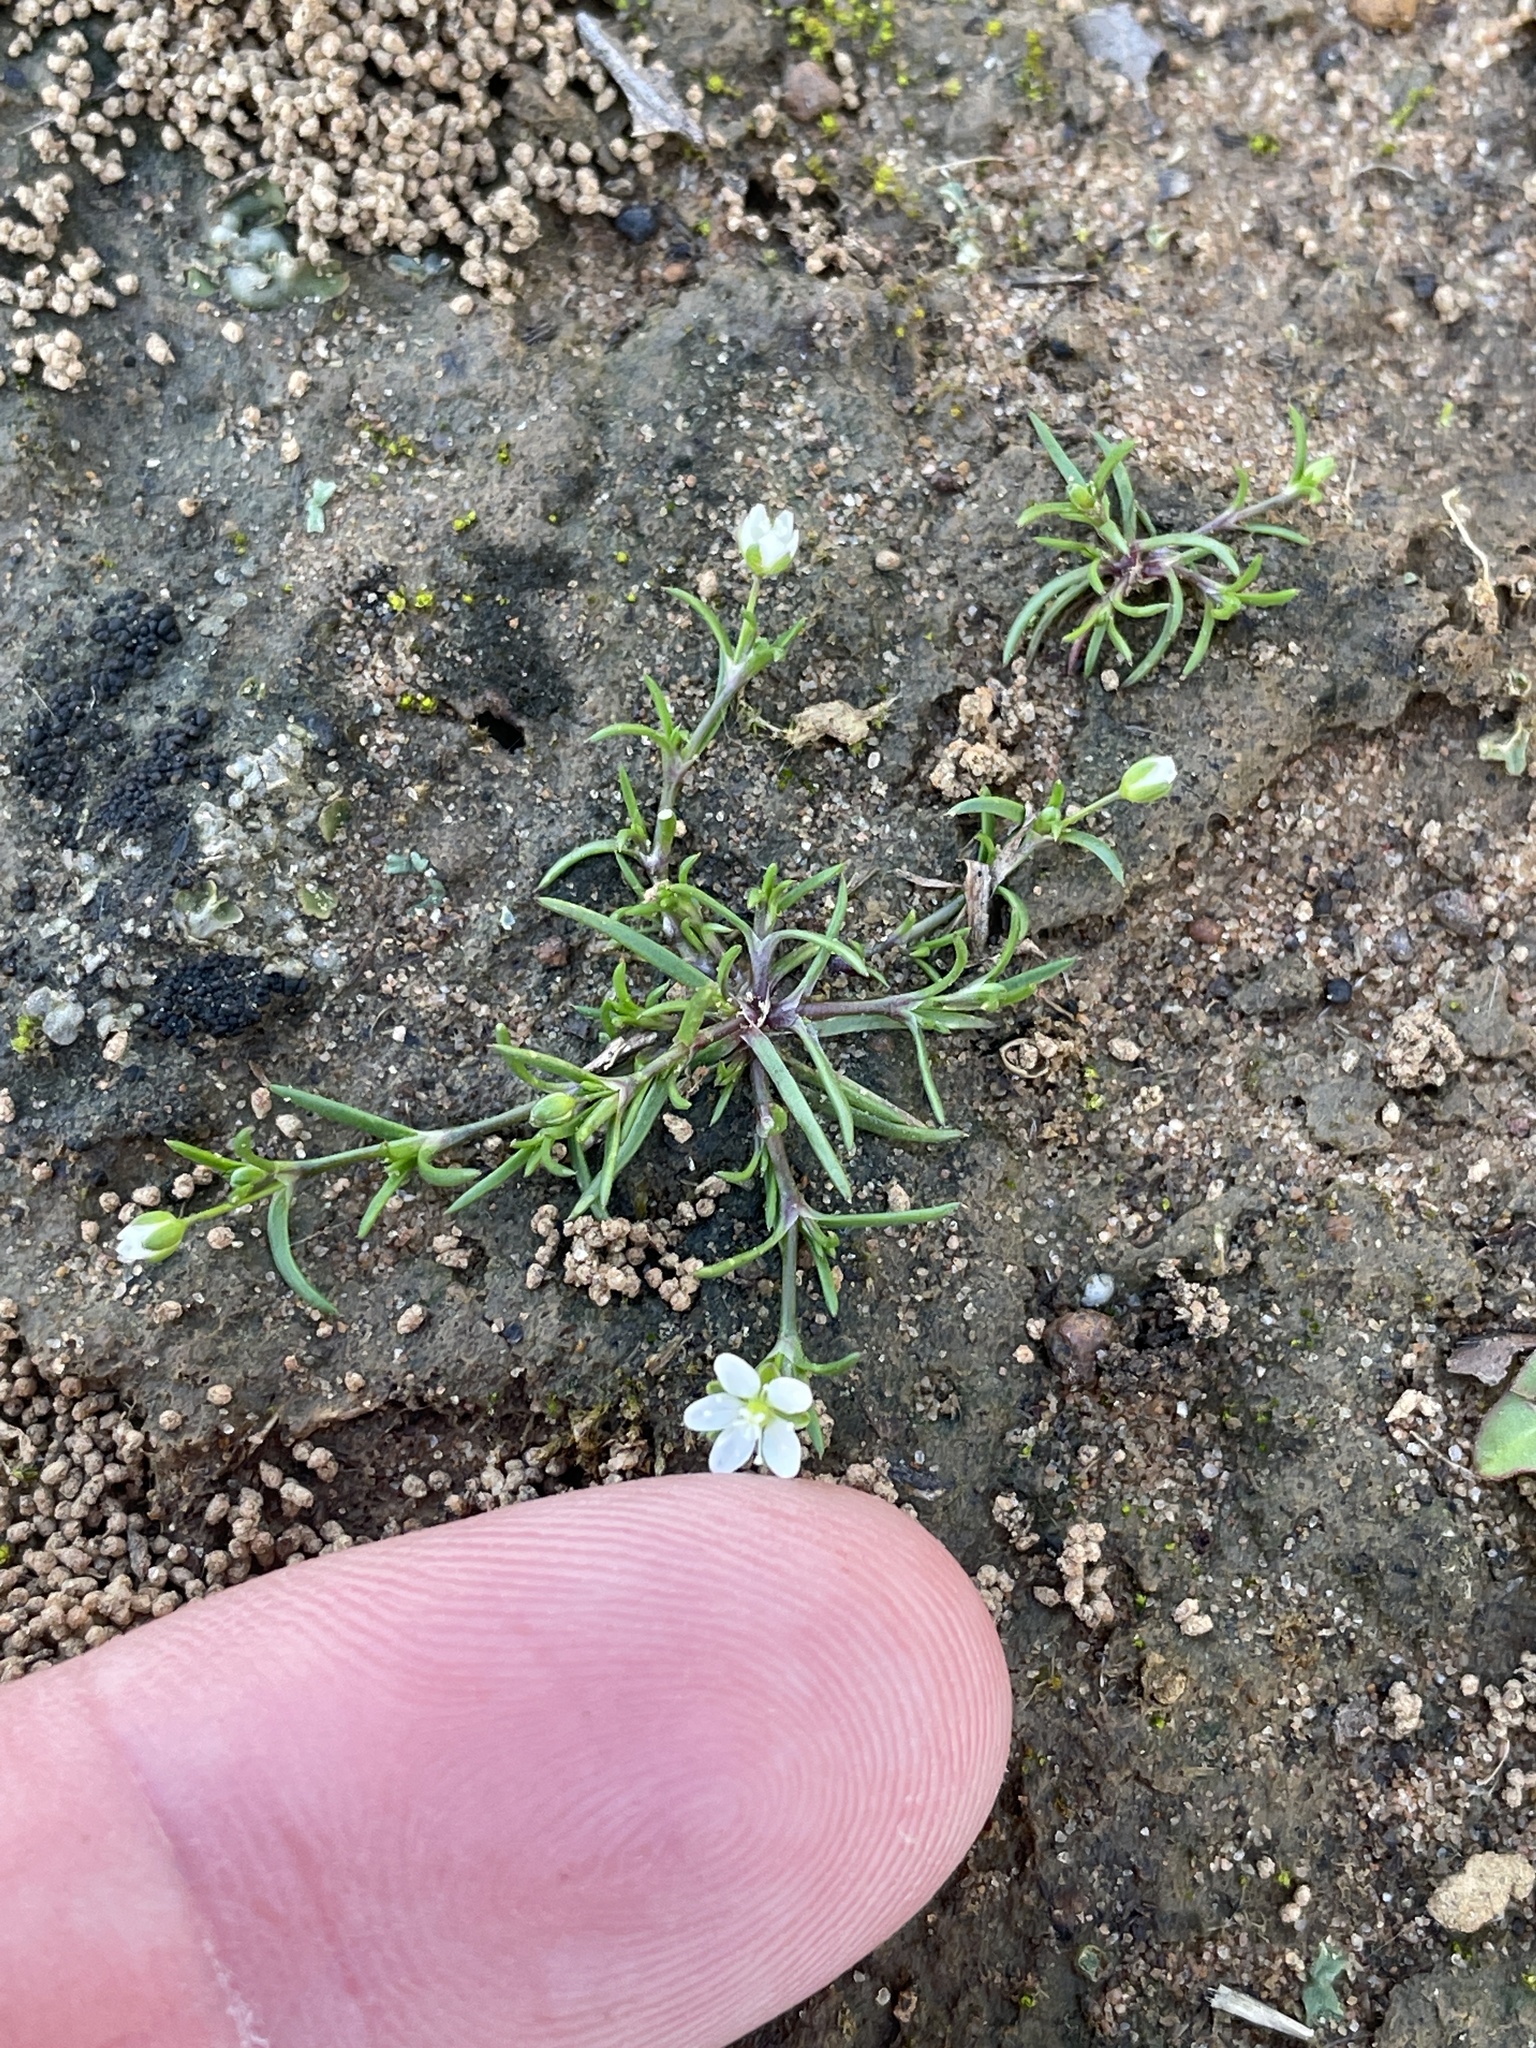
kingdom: Plantae
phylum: Tracheophyta
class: Magnoliopsida
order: Caryophyllales
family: Caryophyllaceae
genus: Sagina
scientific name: Sagina decumbens
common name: Decumbent pearlwort
